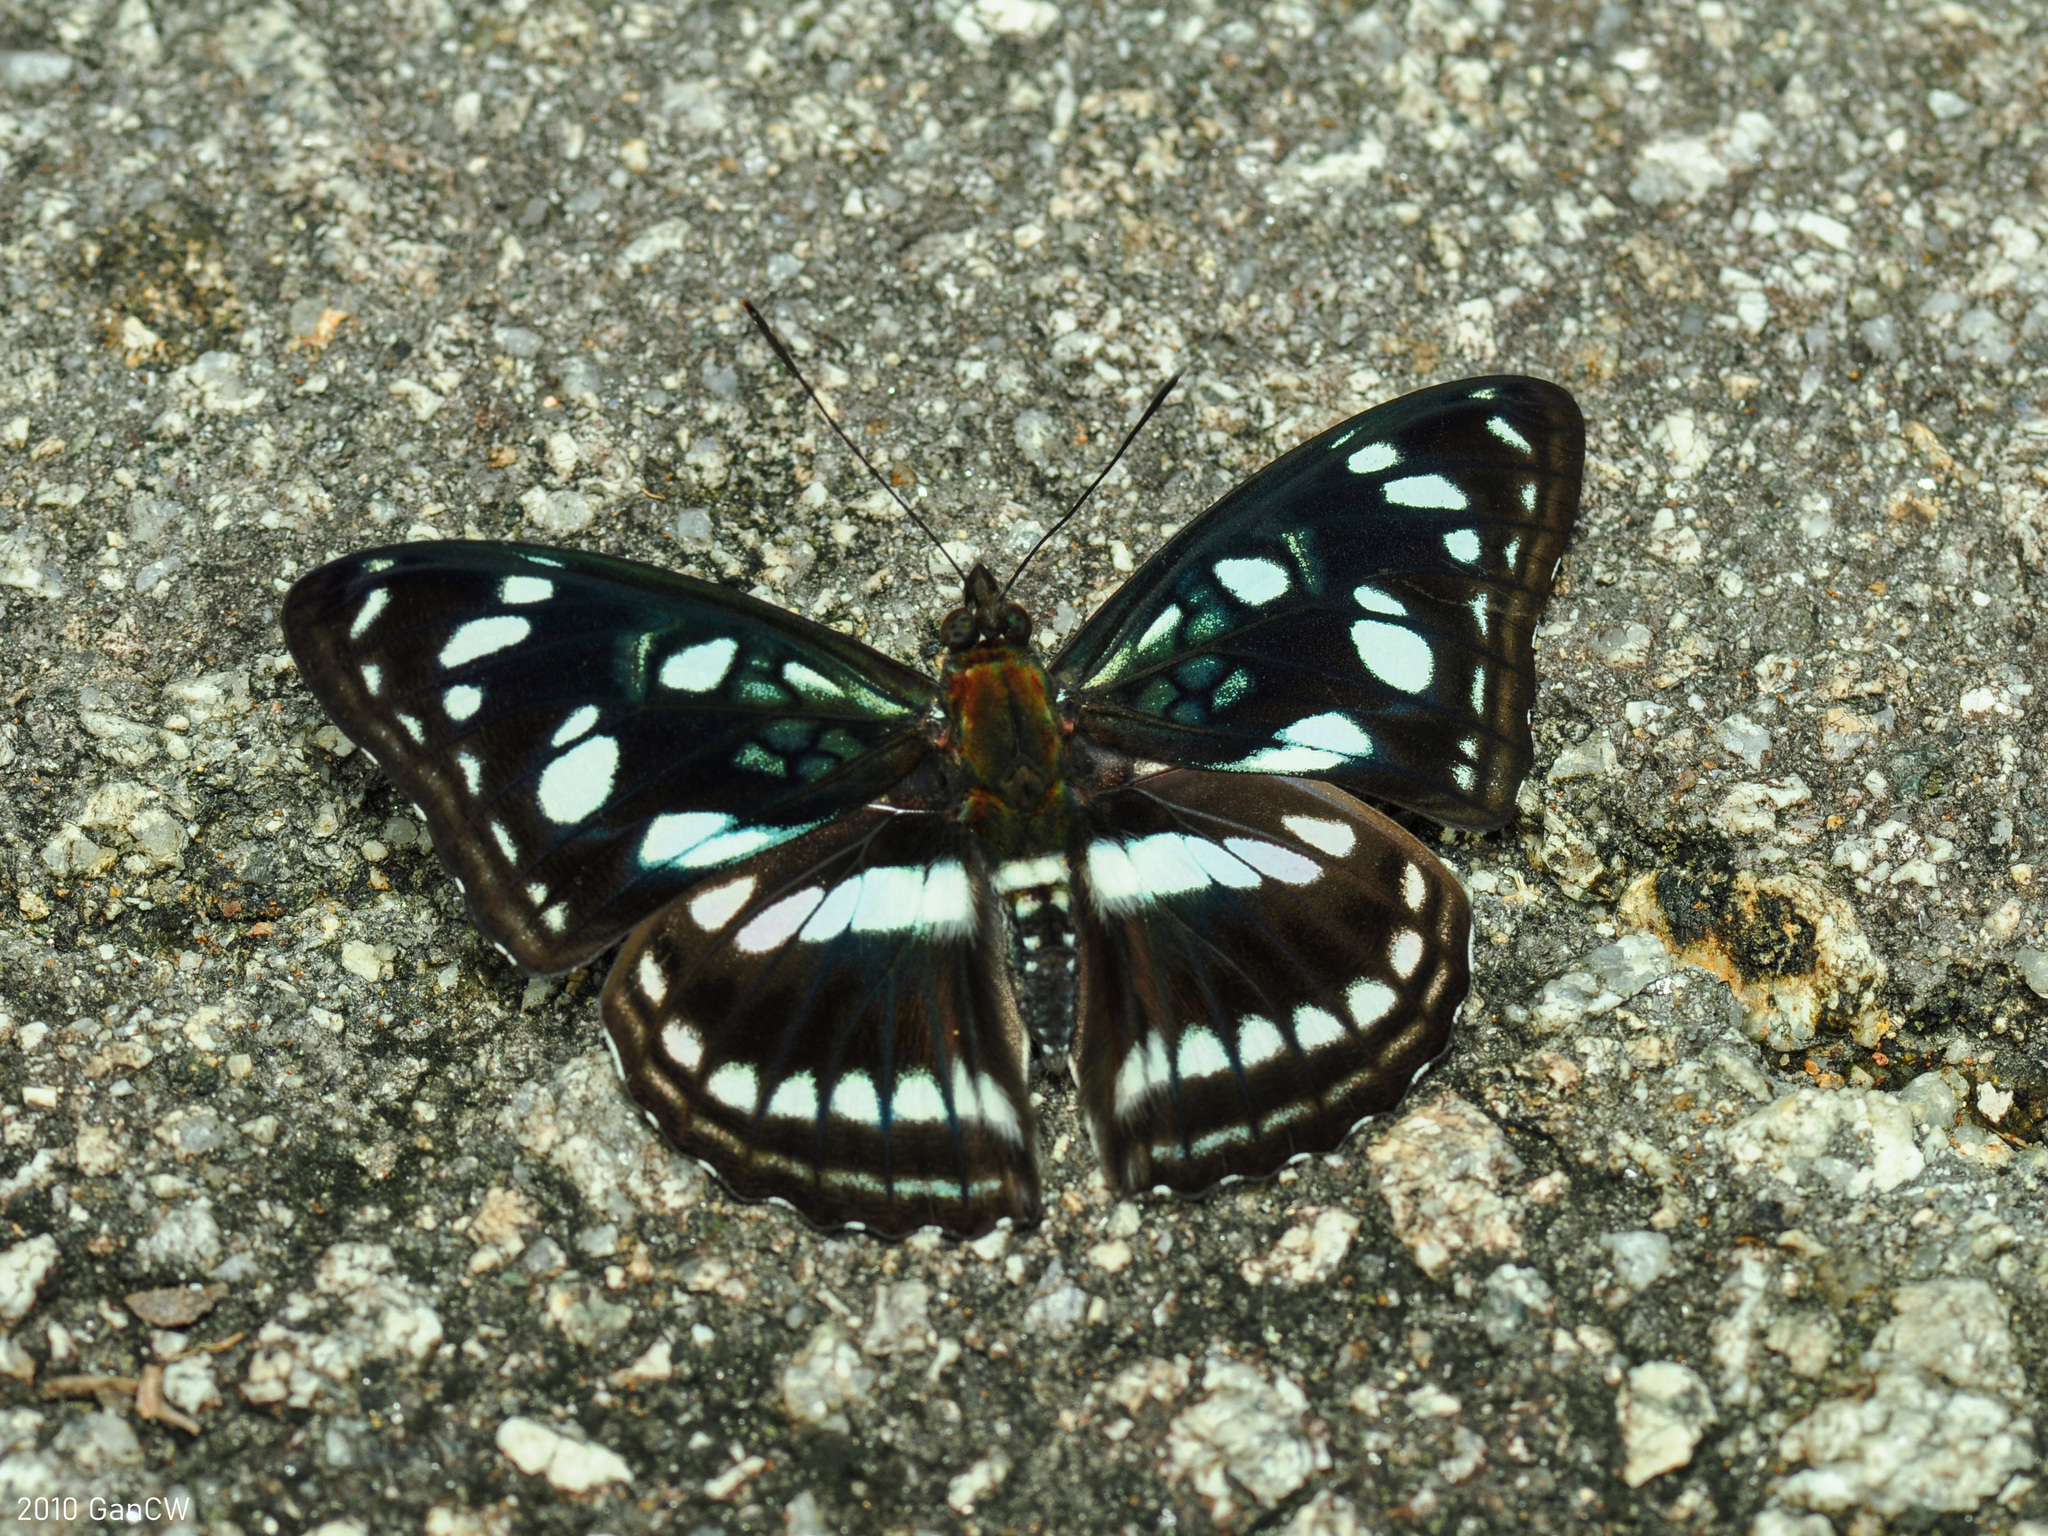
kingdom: Animalia
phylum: Arthropoda
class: Insecta
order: Lepidoptera
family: Nymphalidae
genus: Pantoporia
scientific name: Pantoporia
